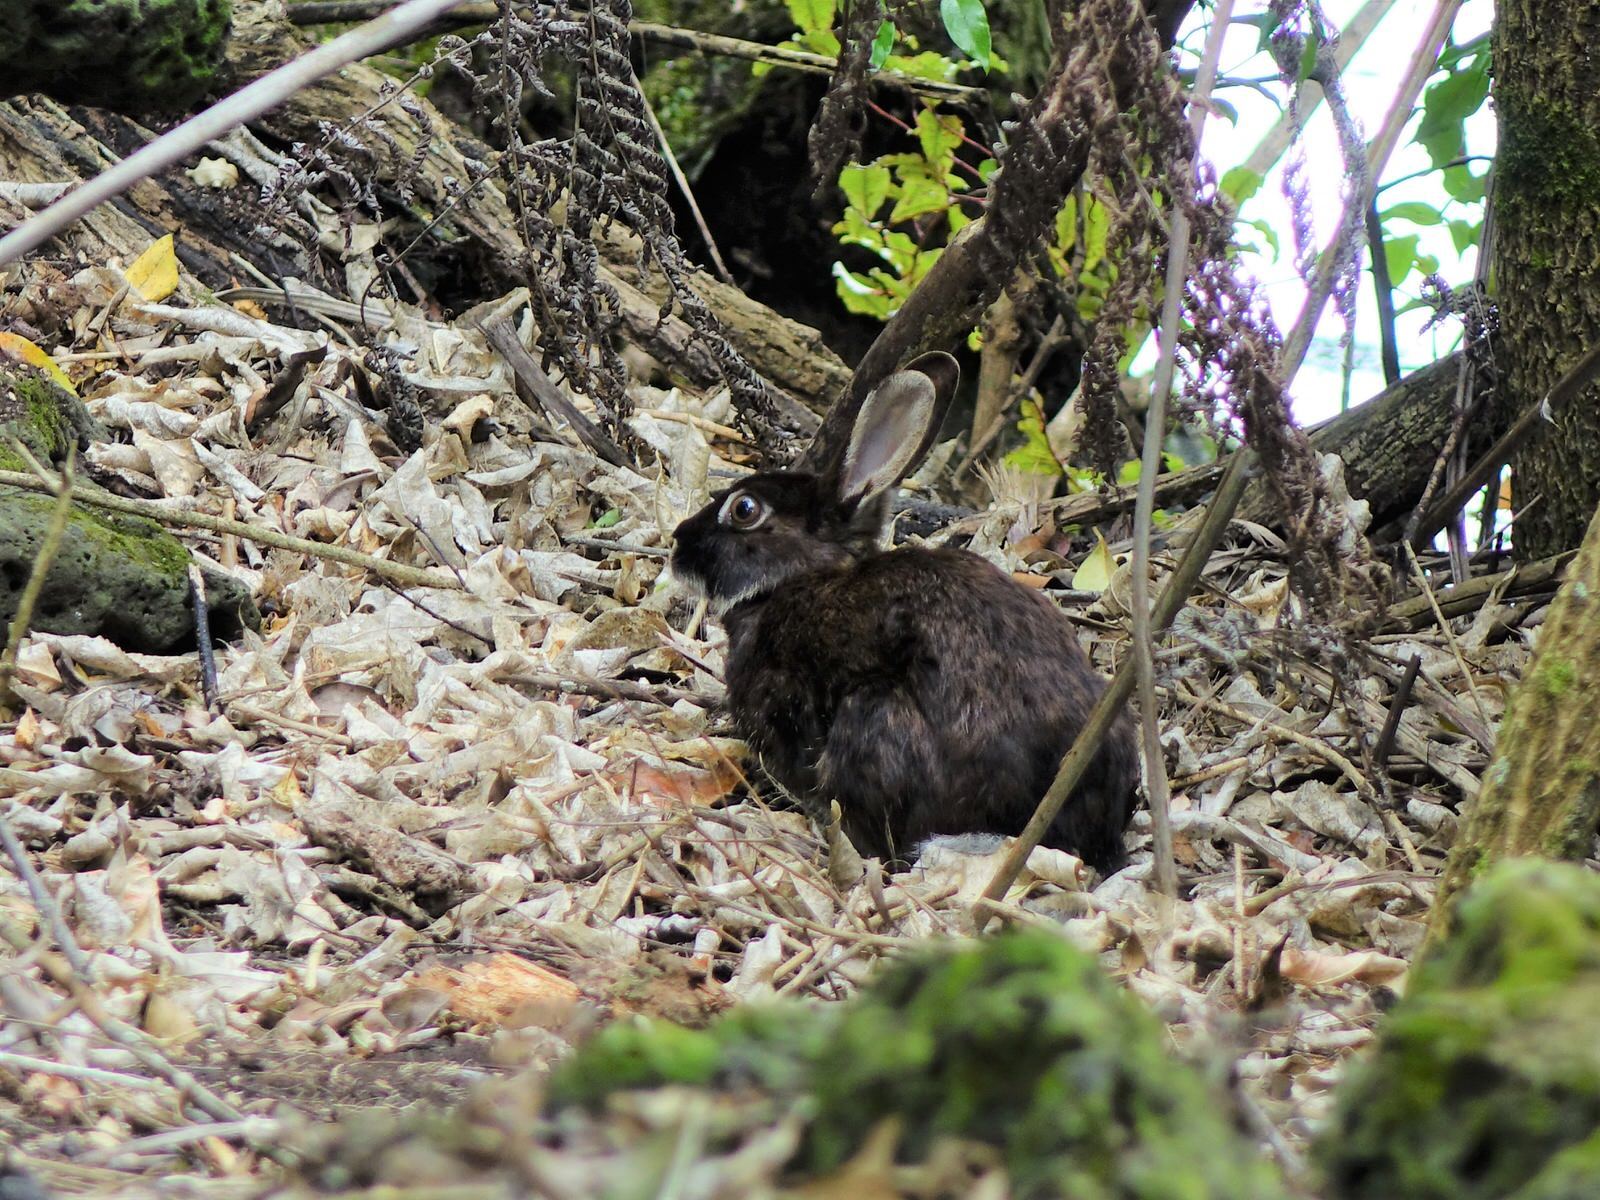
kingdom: Animalia
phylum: Chordata
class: Mammalia
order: Lagomorpha
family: Leporidae
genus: Oryctolagus
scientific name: Oryctolagus cuniculus
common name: European rabbit
